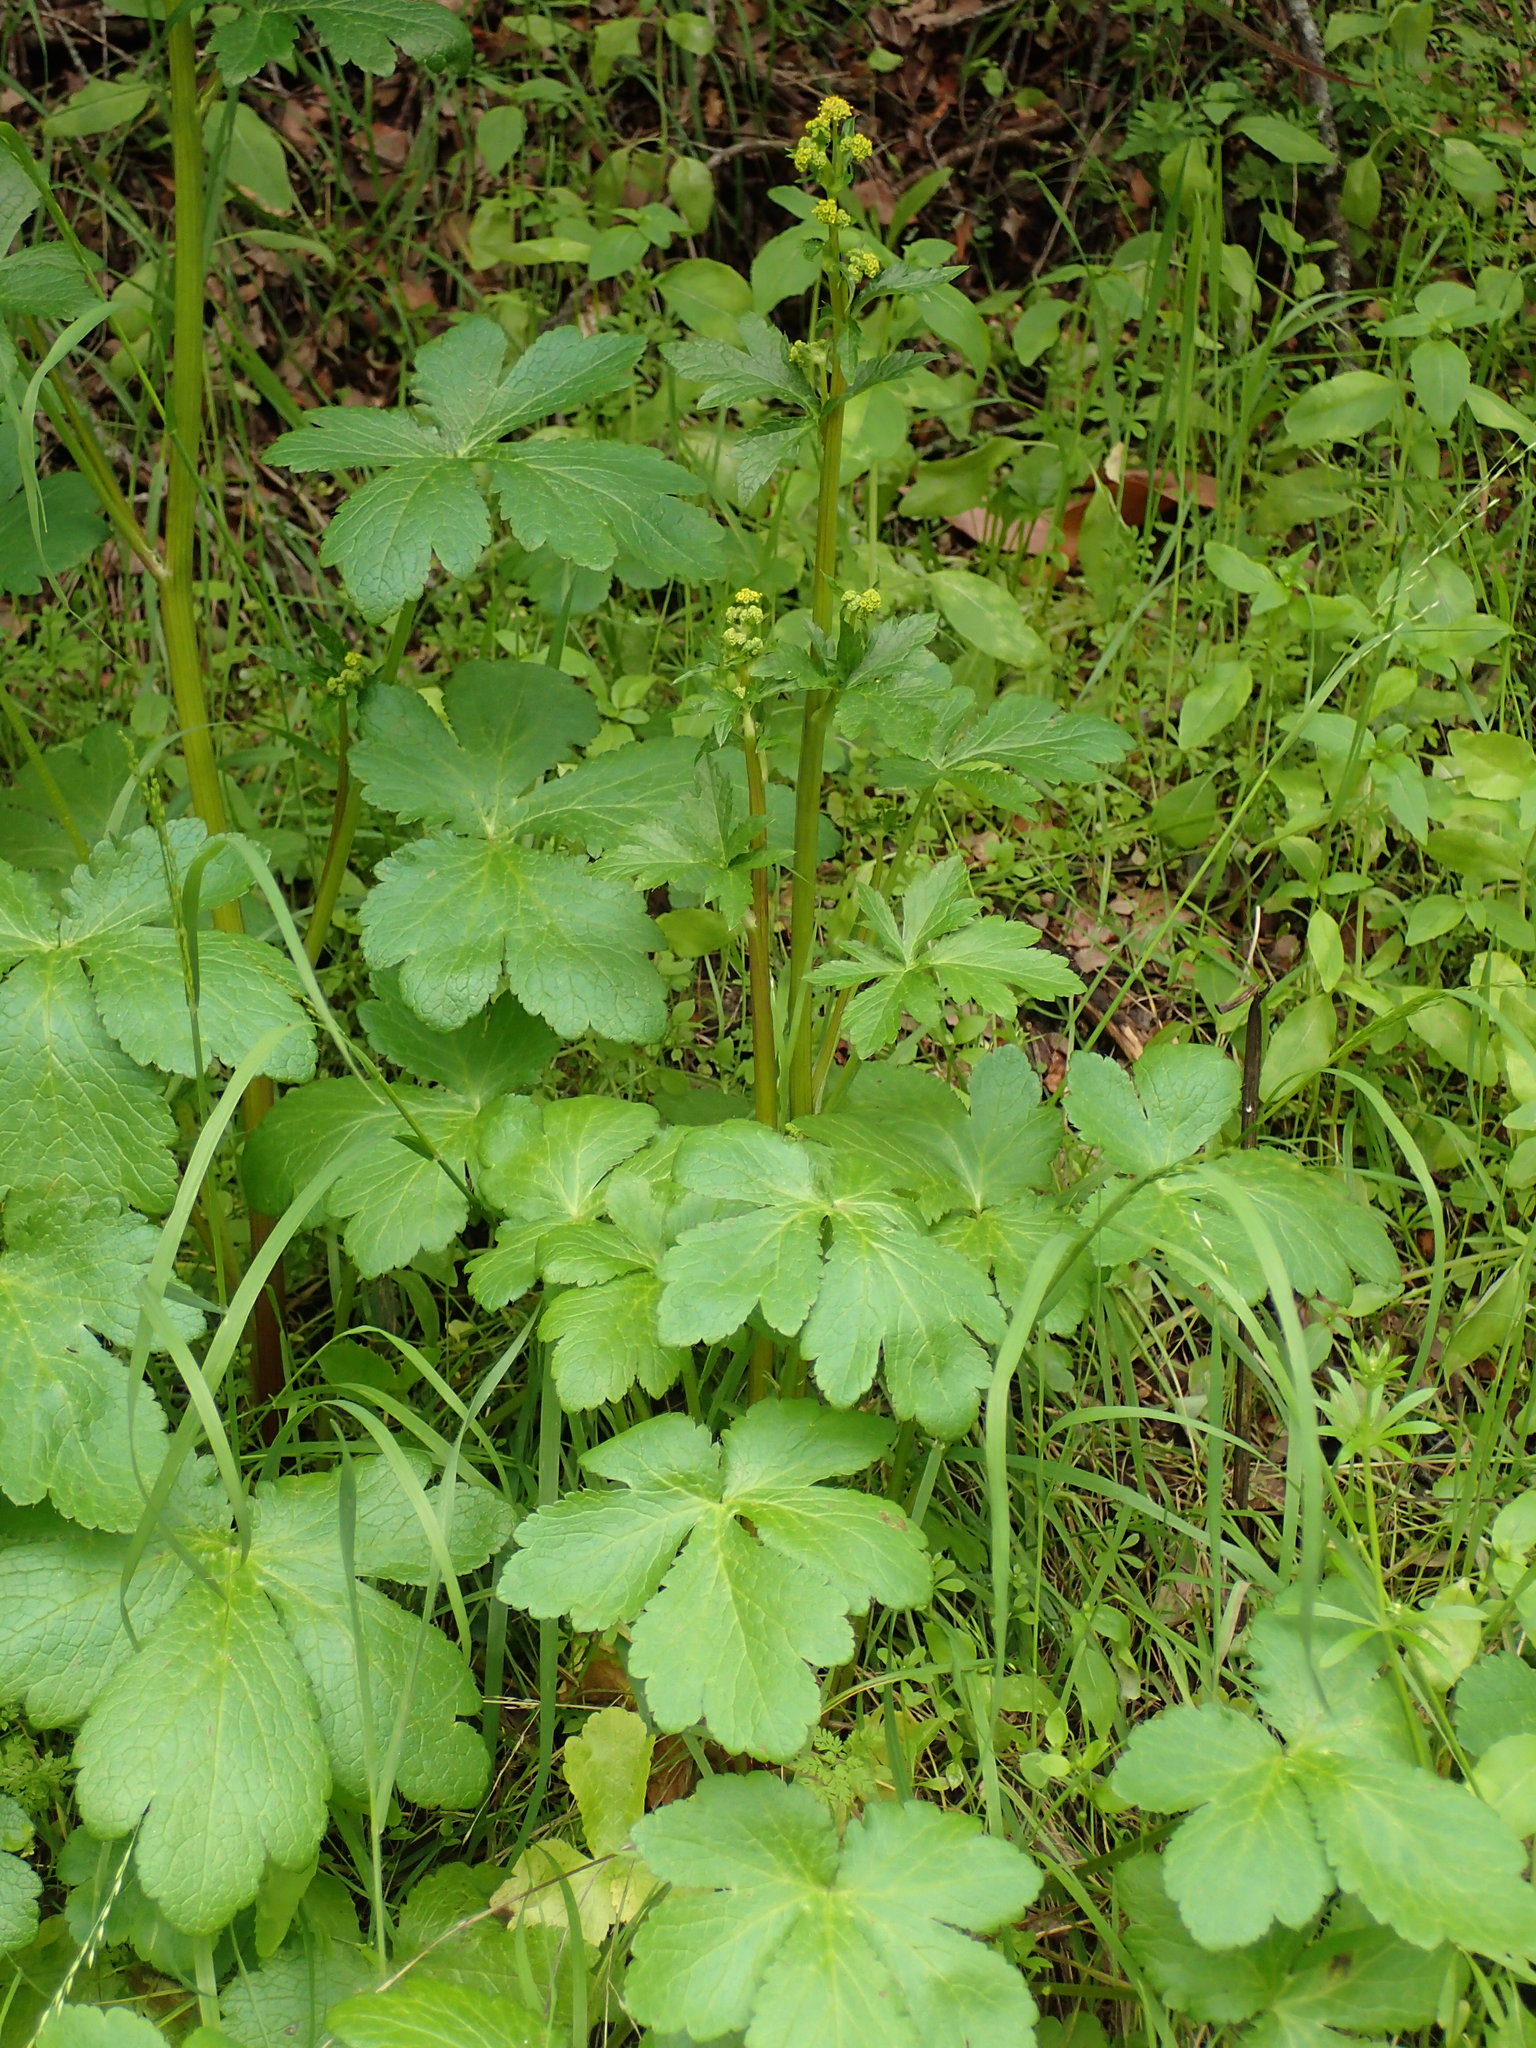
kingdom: Plantae
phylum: Tracheophyta
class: Magnoliopsida
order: Apiales
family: Apiaceae
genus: Sanicula
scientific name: Sanicula crassicaulis
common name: Western snakeroot
